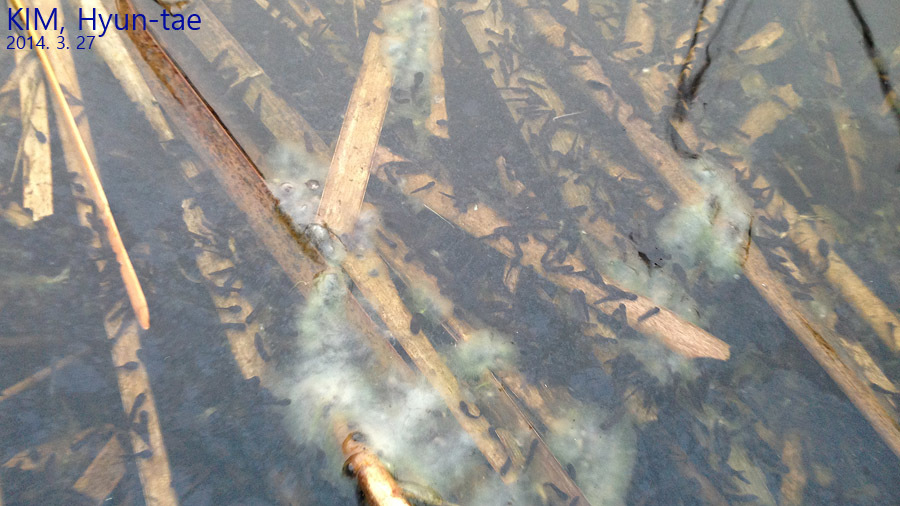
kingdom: Animalia
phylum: Chordata
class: Amphibia
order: Anura
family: Bufonidae
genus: Bufo
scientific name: Bufo gargarizans
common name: Asiatic toad
